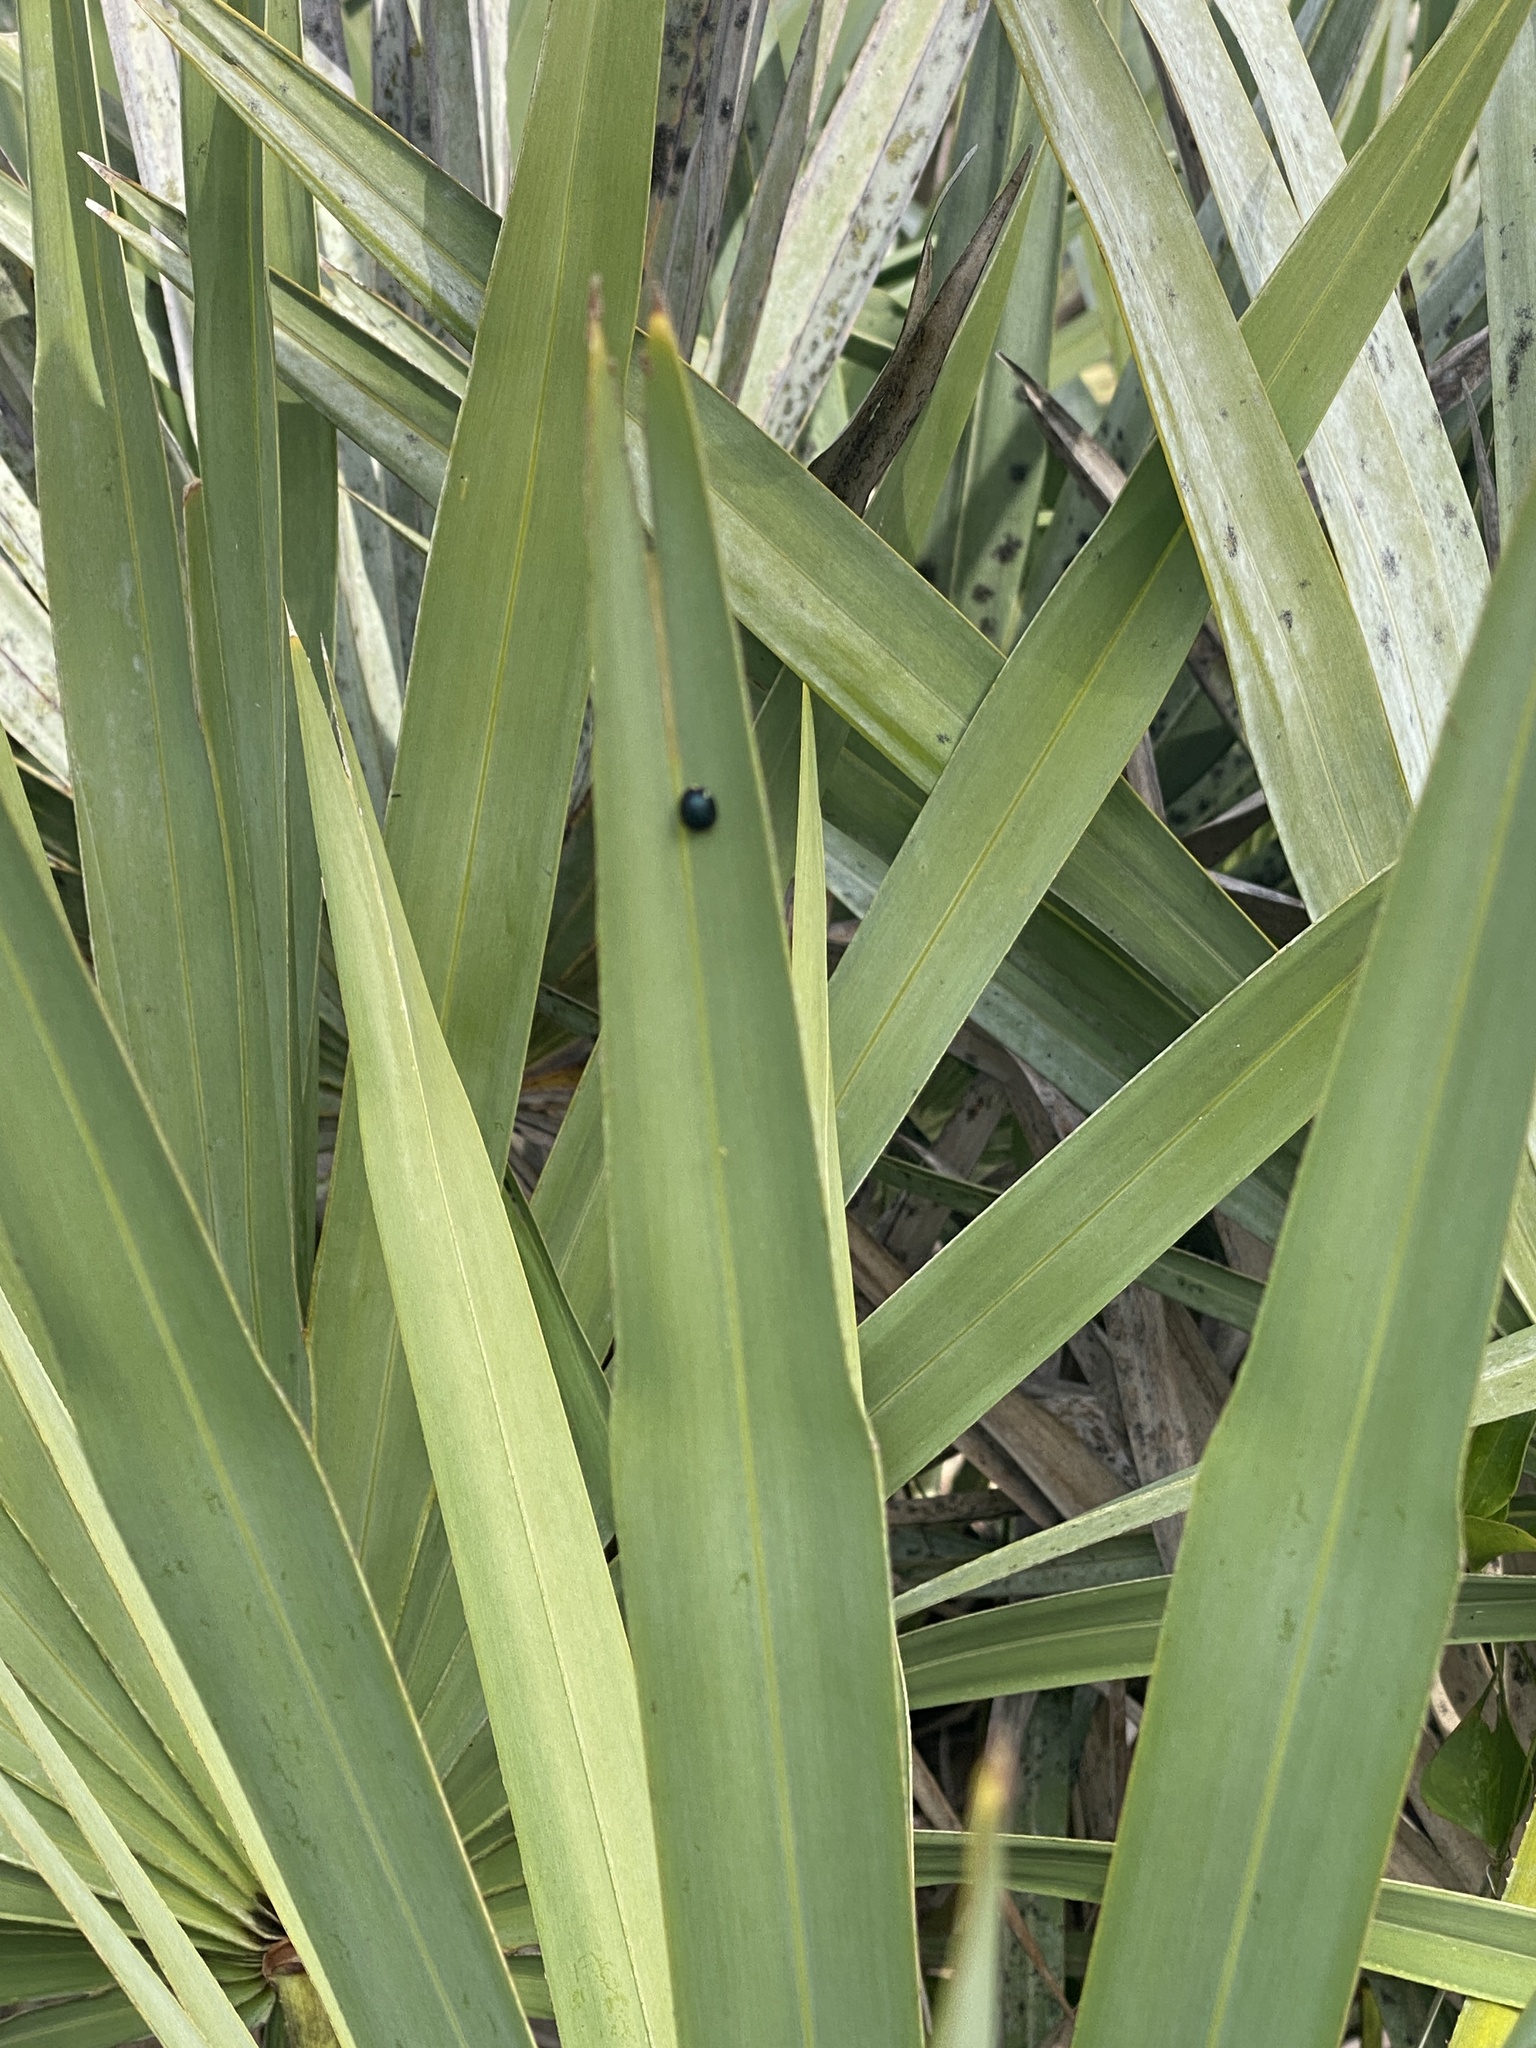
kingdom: Animalia
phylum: Arthropoda
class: Insecta
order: Coleoptera
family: Chrysomelidae
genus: Hemisphaerota
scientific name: Hemisphaerota cyanea
